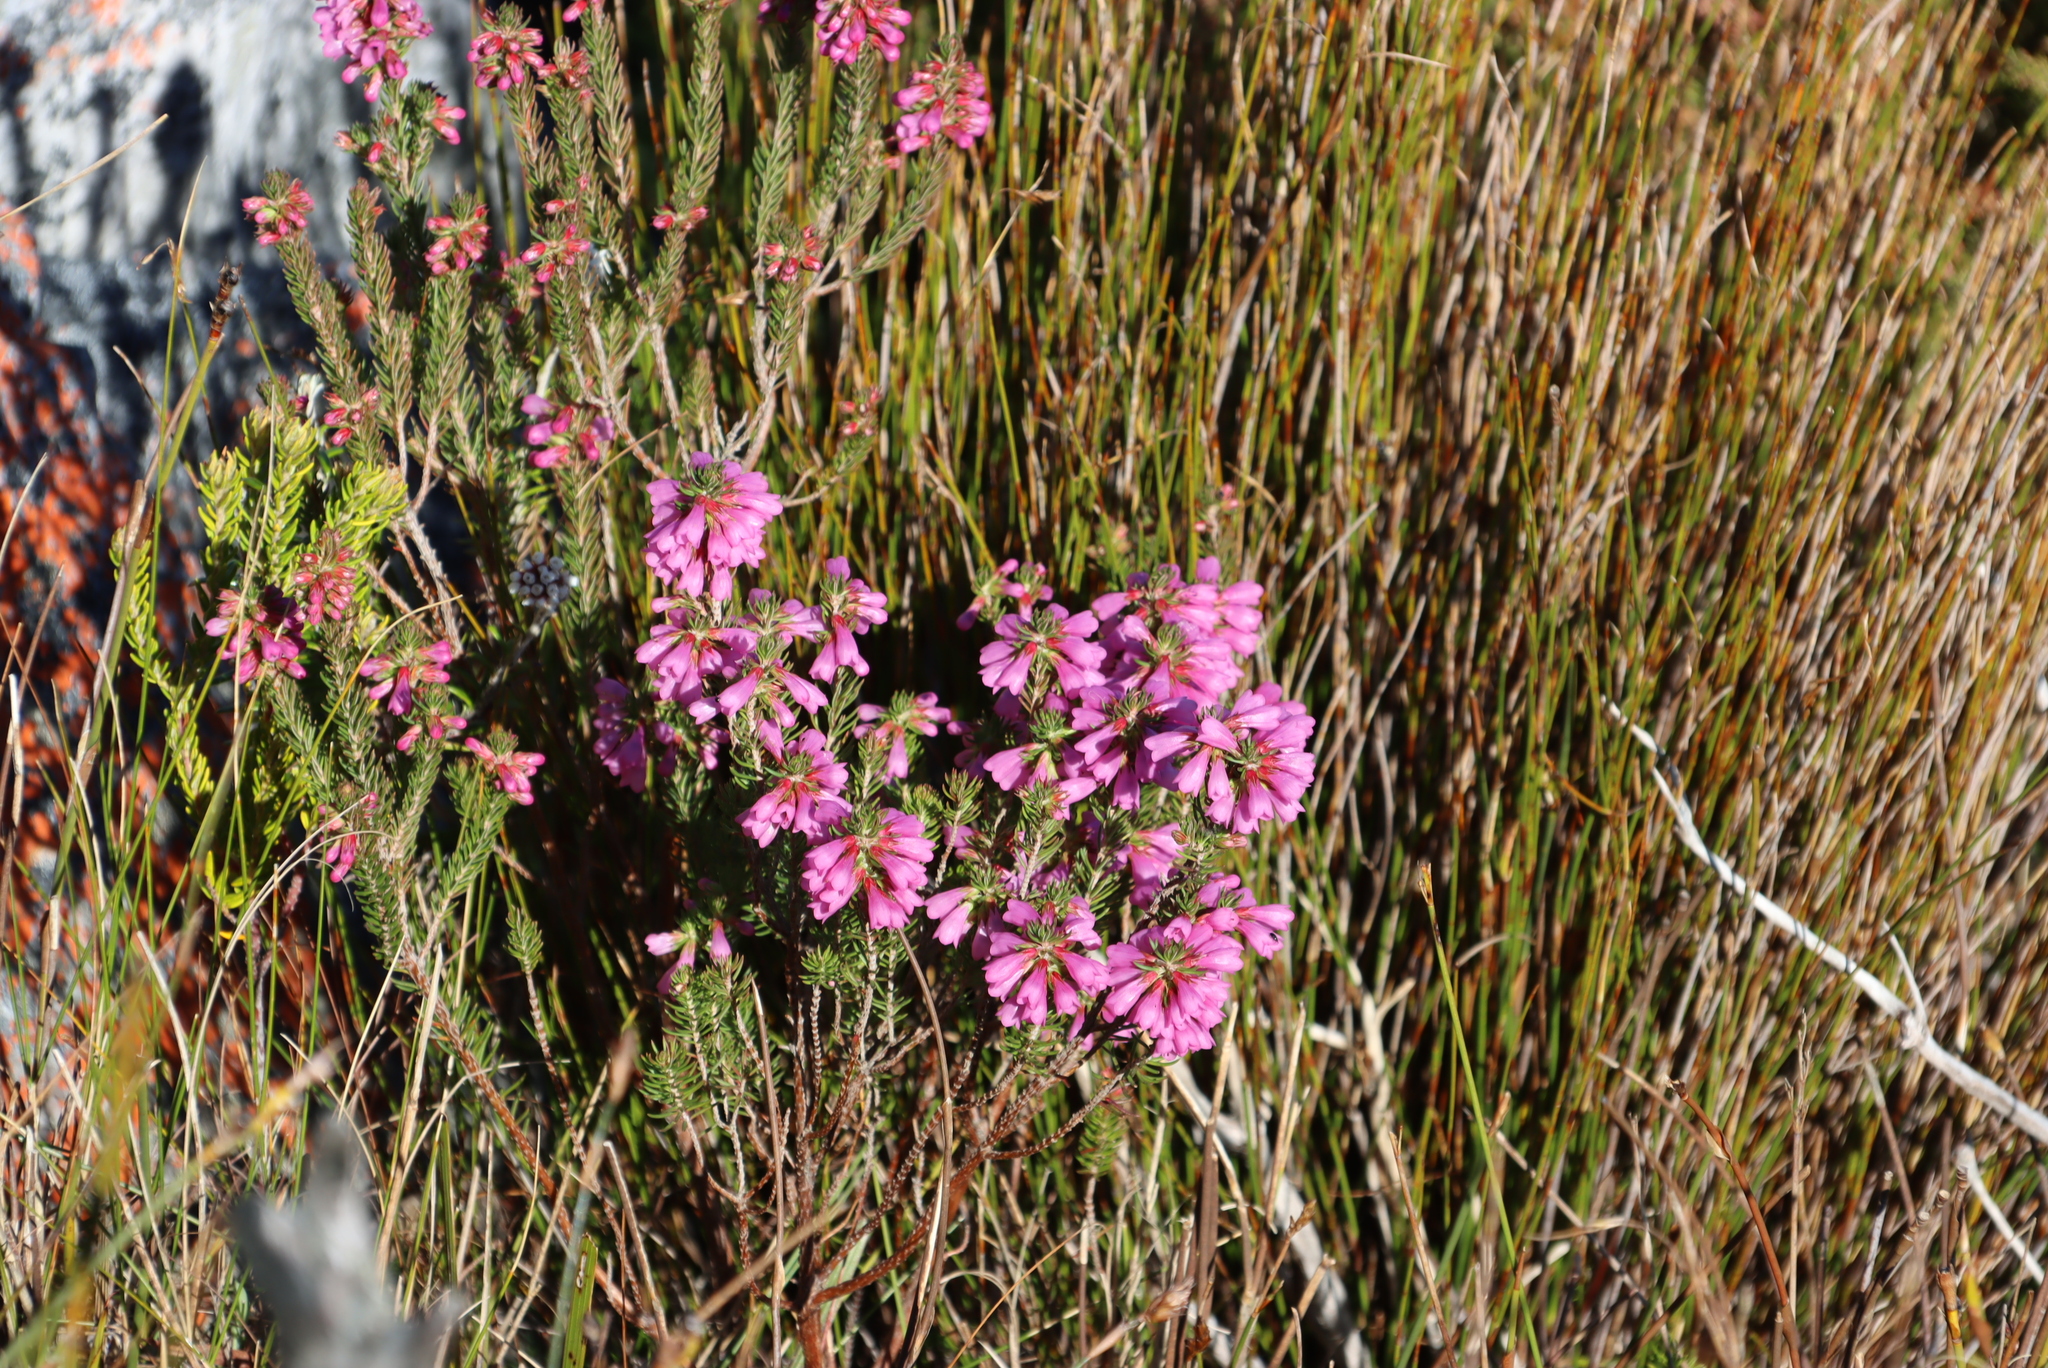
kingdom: Plantae
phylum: Tracheophyta
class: Magnoliopsida
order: Ericales
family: Ericaceae
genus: Erica
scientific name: Erica abietina
